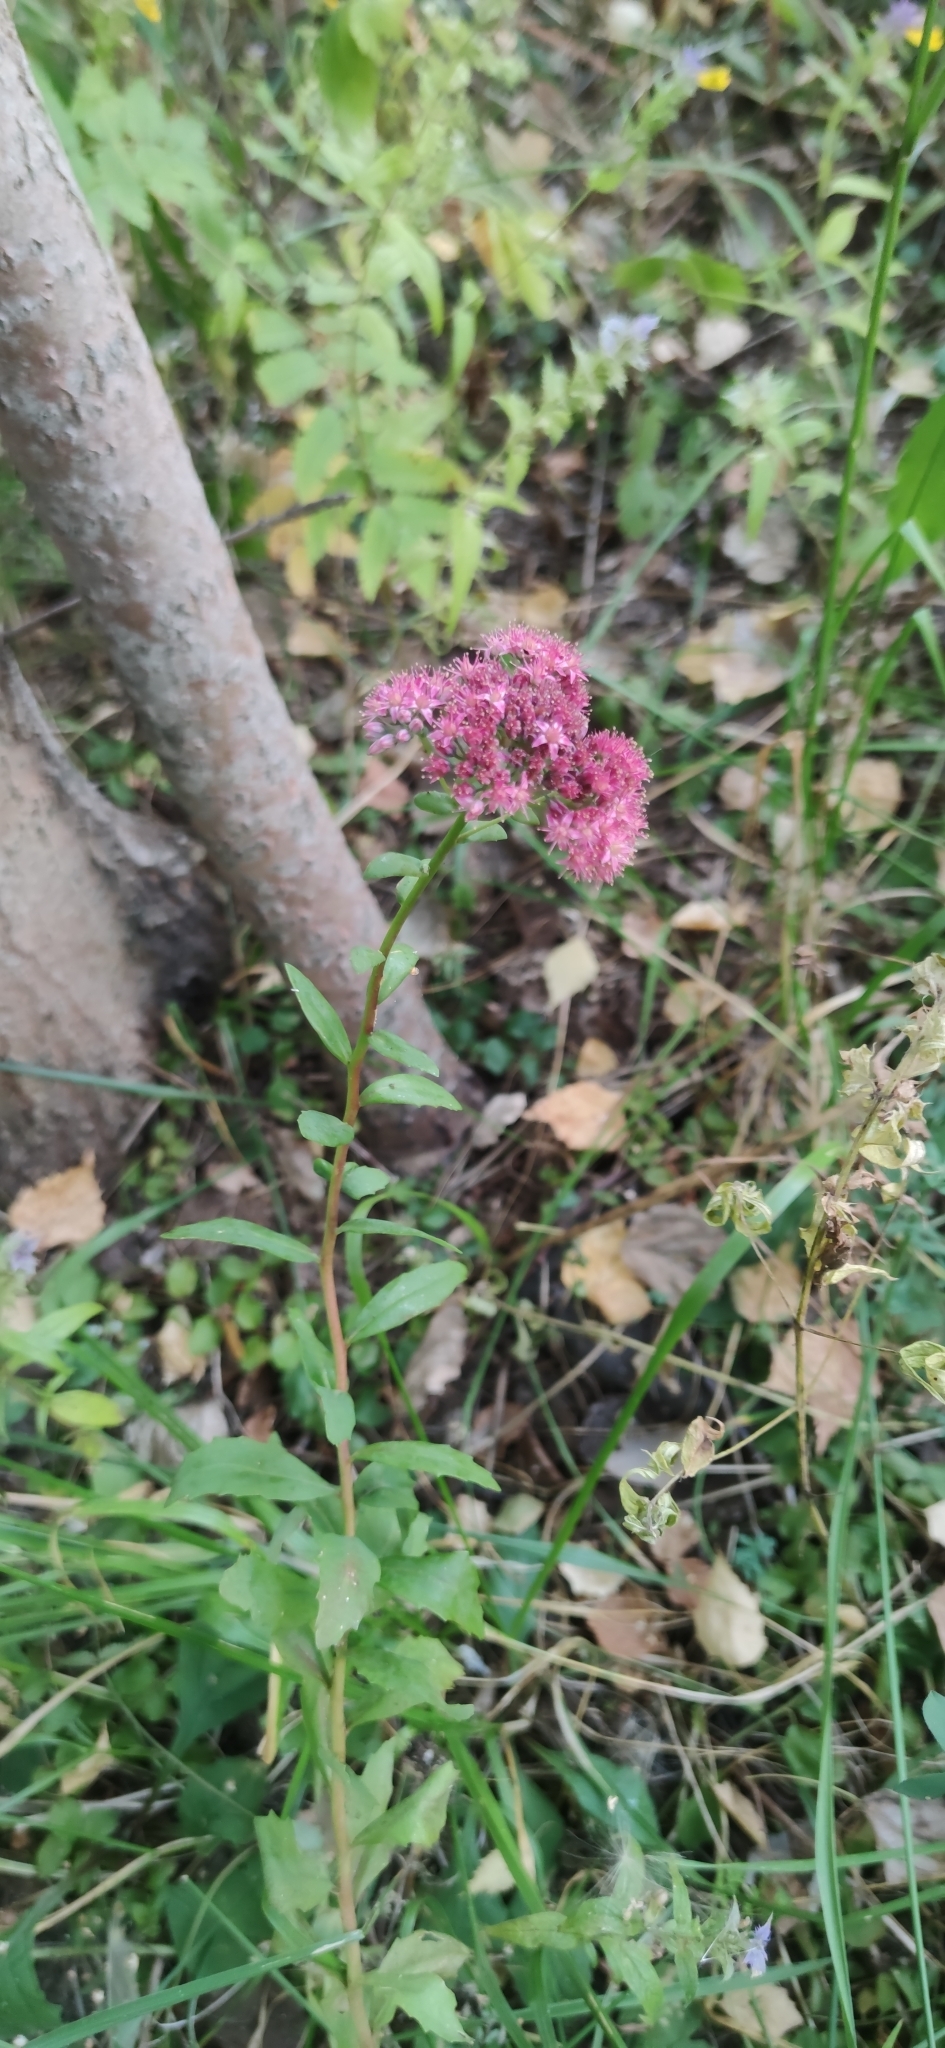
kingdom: Plantae
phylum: Tracheophyta
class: Magnoliopsida
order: Saxifragales
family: Crassulaceae
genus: Hylotelephium
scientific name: Hylotelephium telephium
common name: Live-forever
